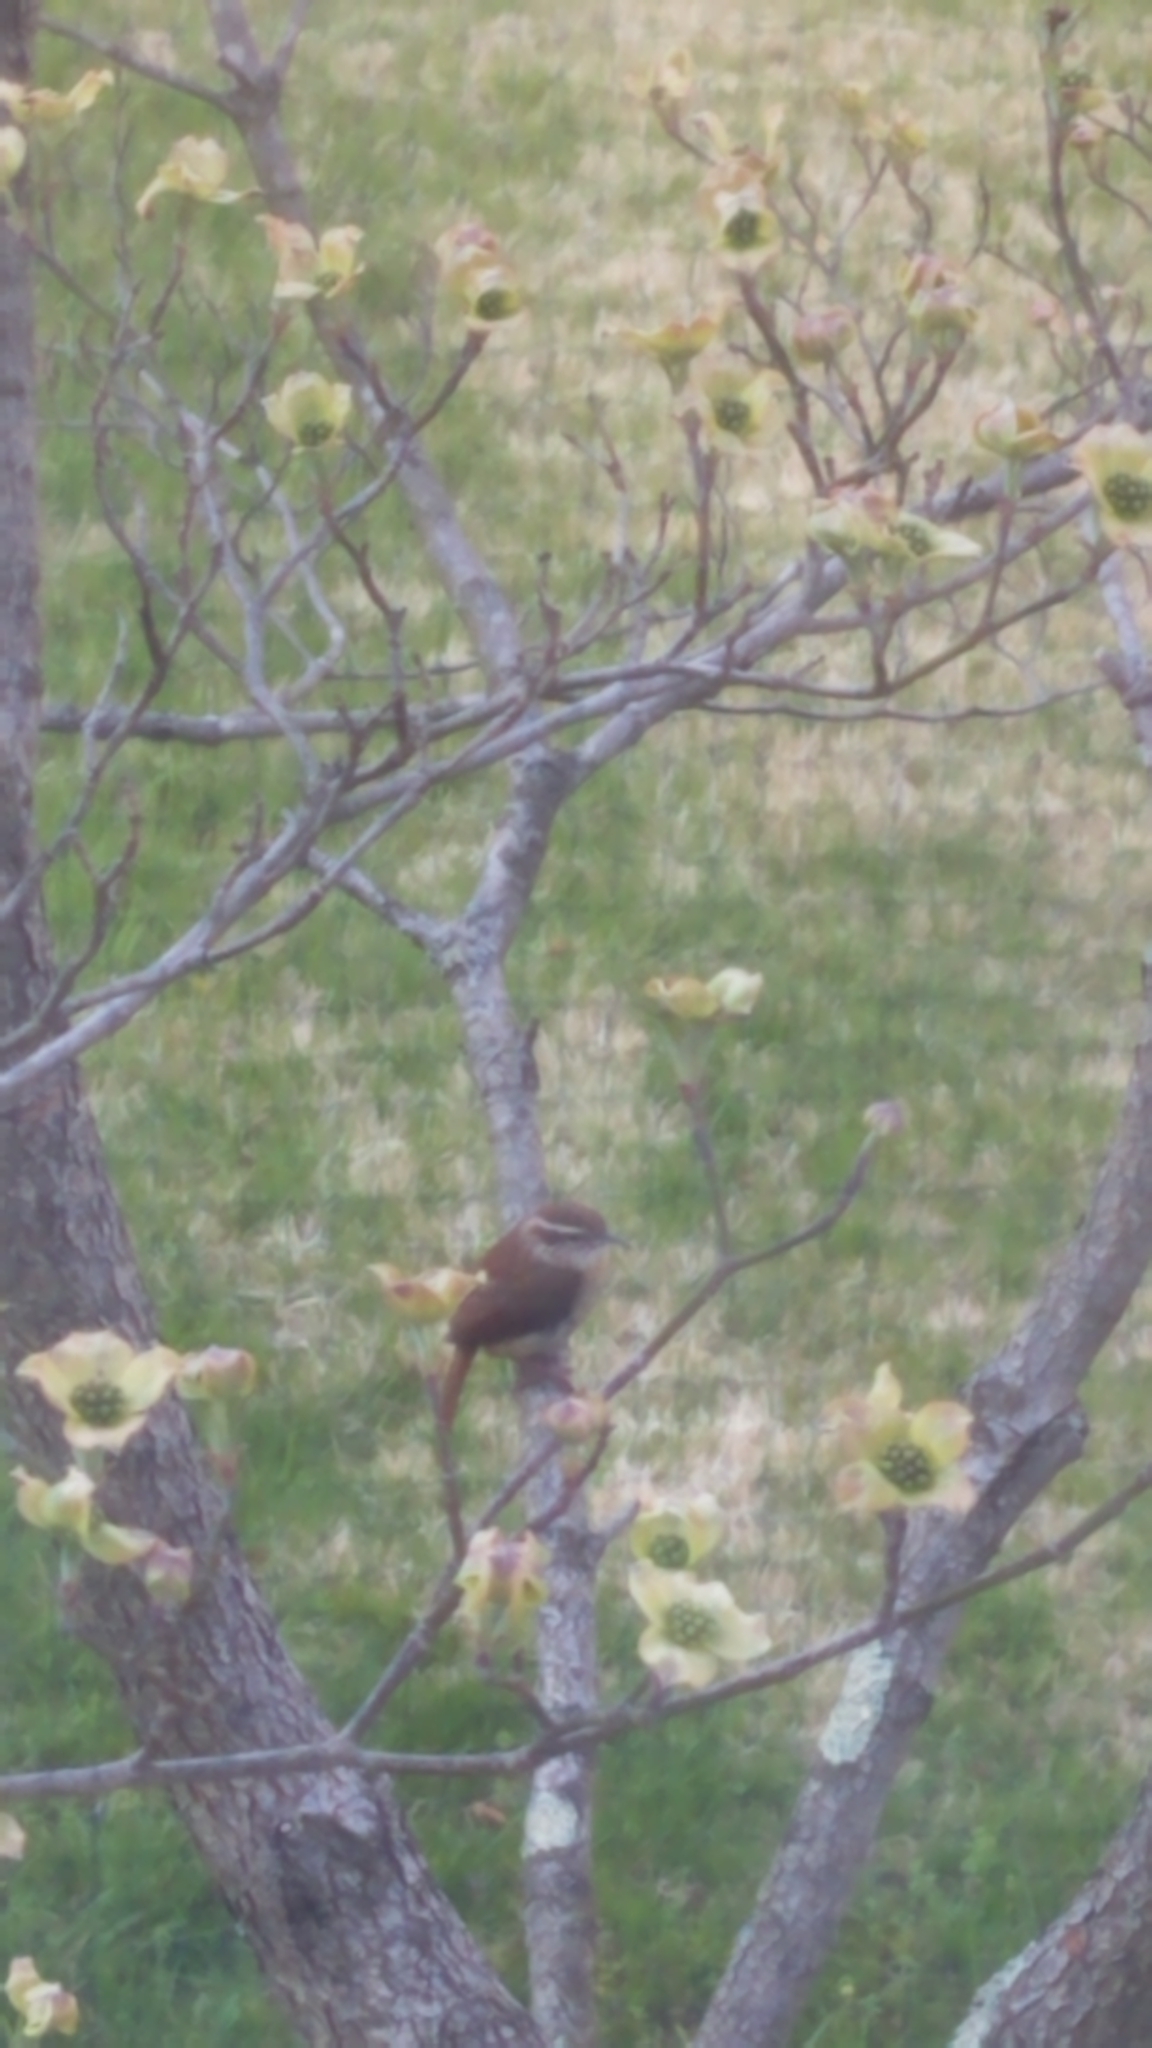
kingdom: Animalia
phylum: Chordata
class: Aves
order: Passeriformes
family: Troglodytidae
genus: Thryothorus
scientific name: Thryothorus ludovicianus
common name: Carolina wren
